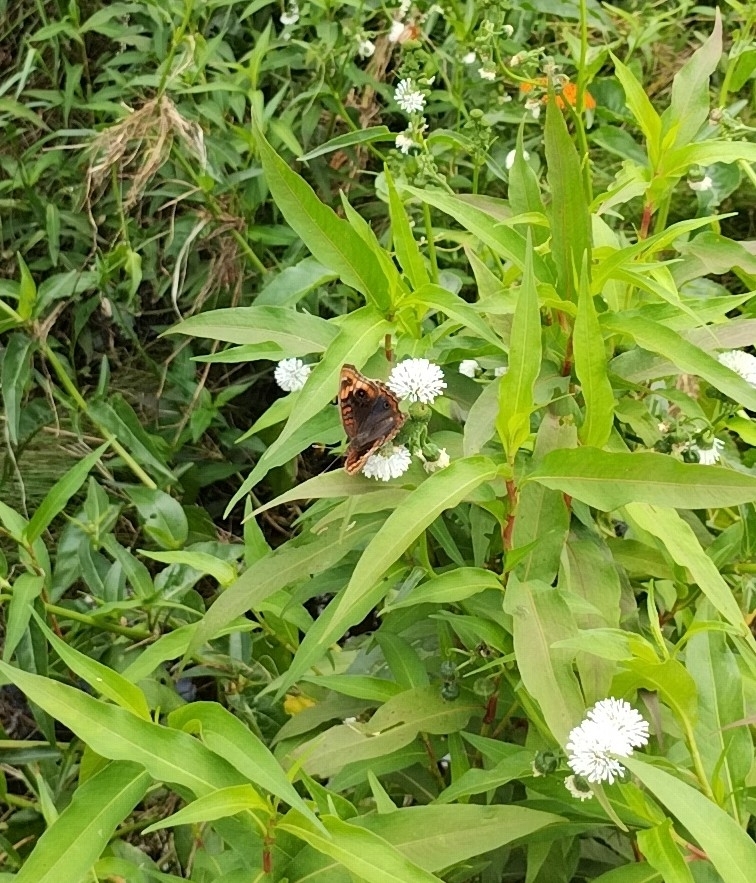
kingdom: Animalia
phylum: Arthropoda
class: Insecta
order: Lepidoptera
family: Nymphalidae
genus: Junonia
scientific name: Junonia lavinia
